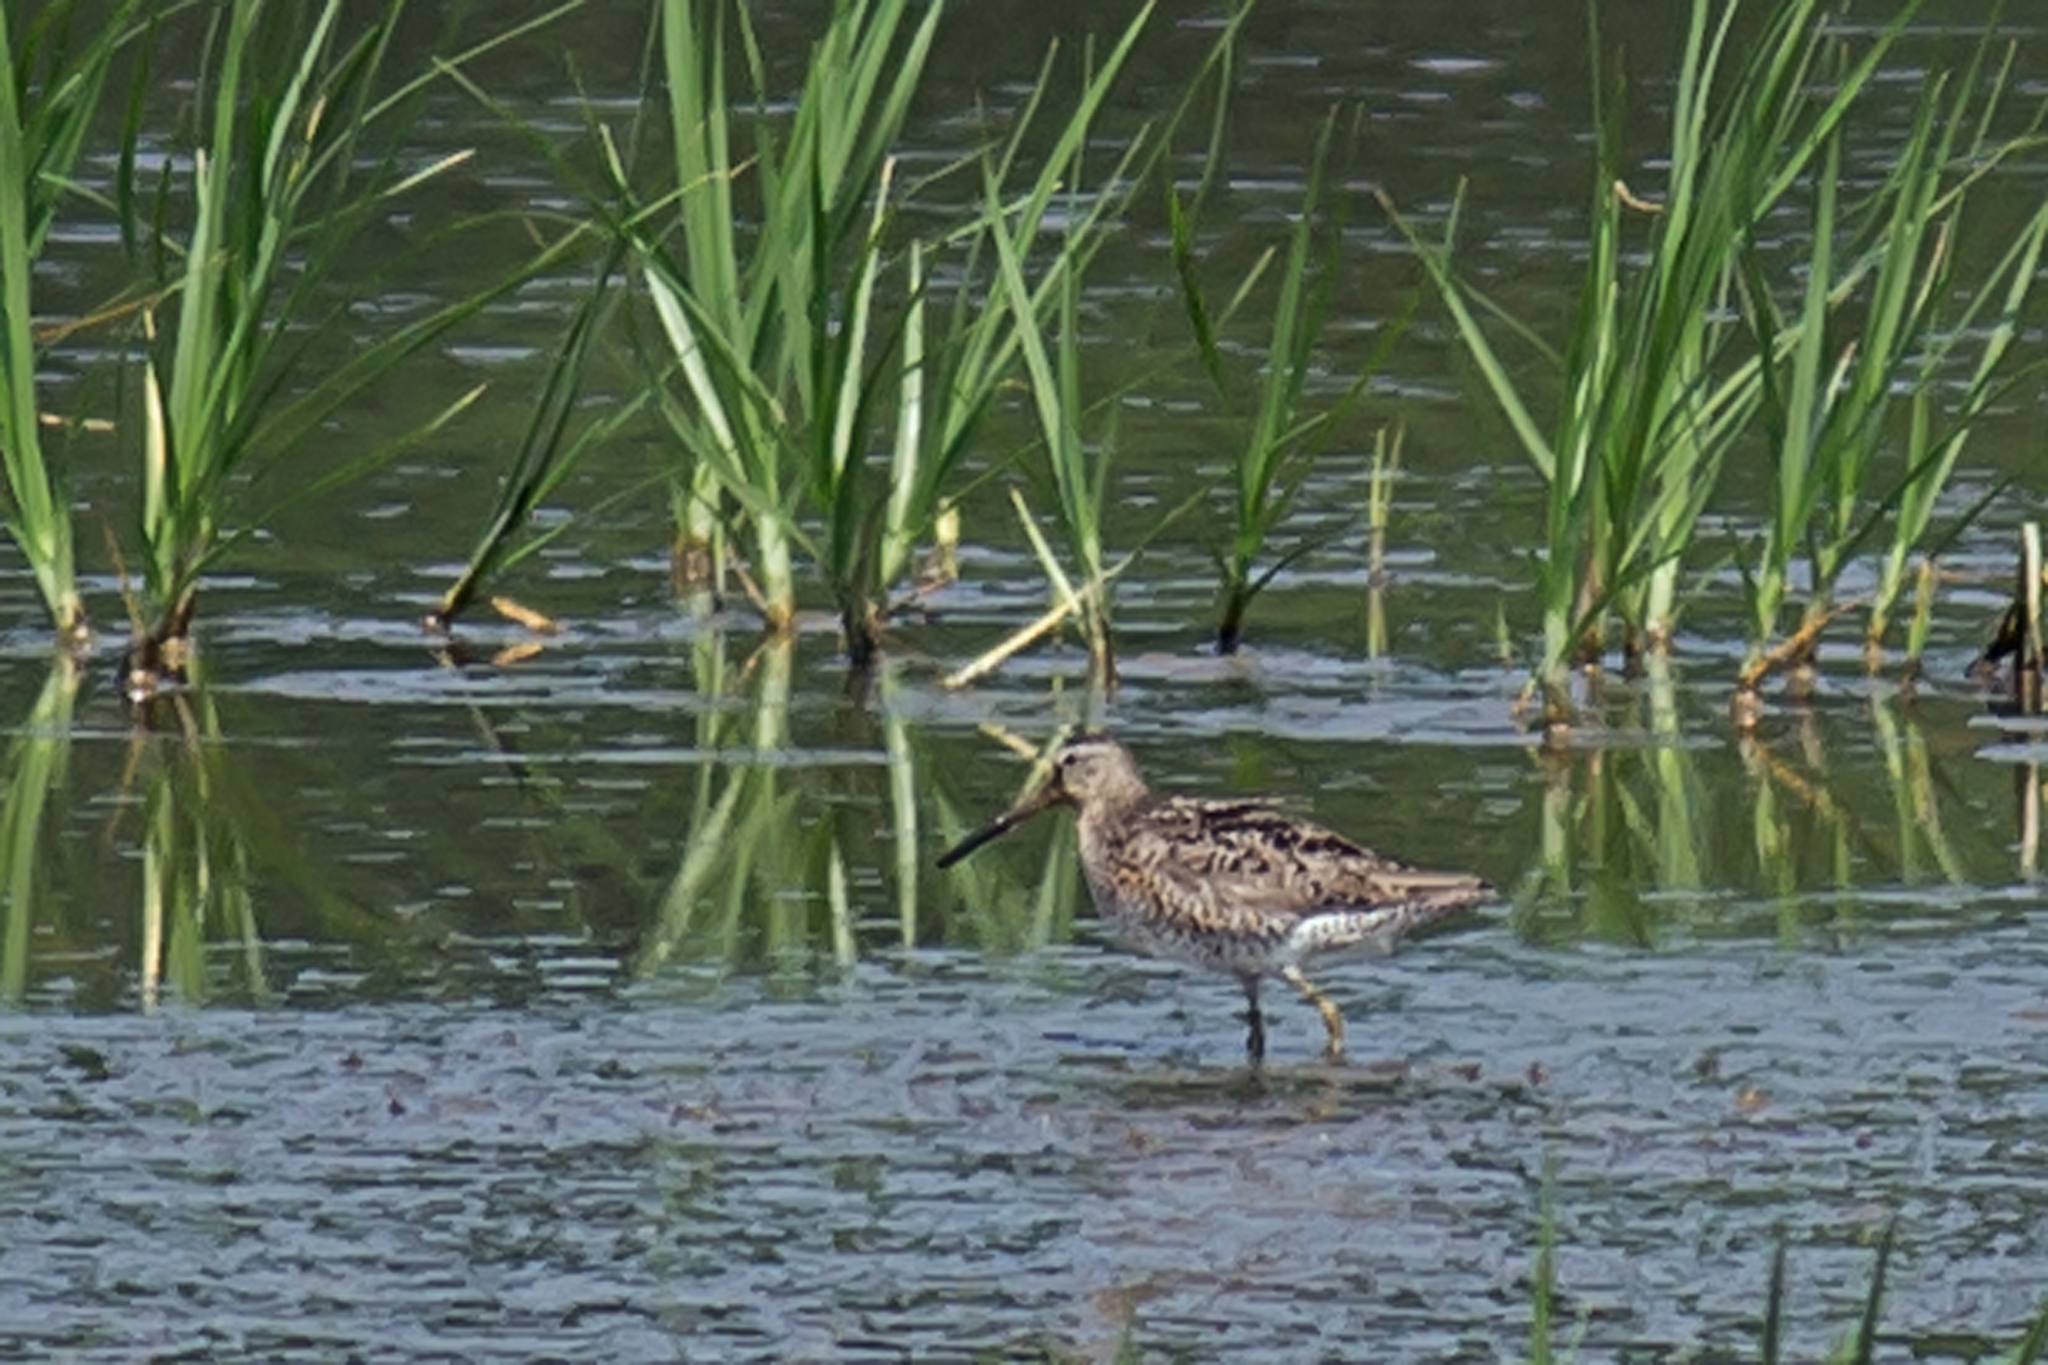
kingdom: Animalia
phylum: Chordata
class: Aves
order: Charadriiformes
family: Scolopacidae
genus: Limnodromus
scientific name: Limnodromus griseus
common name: Short-billed dowitcher
